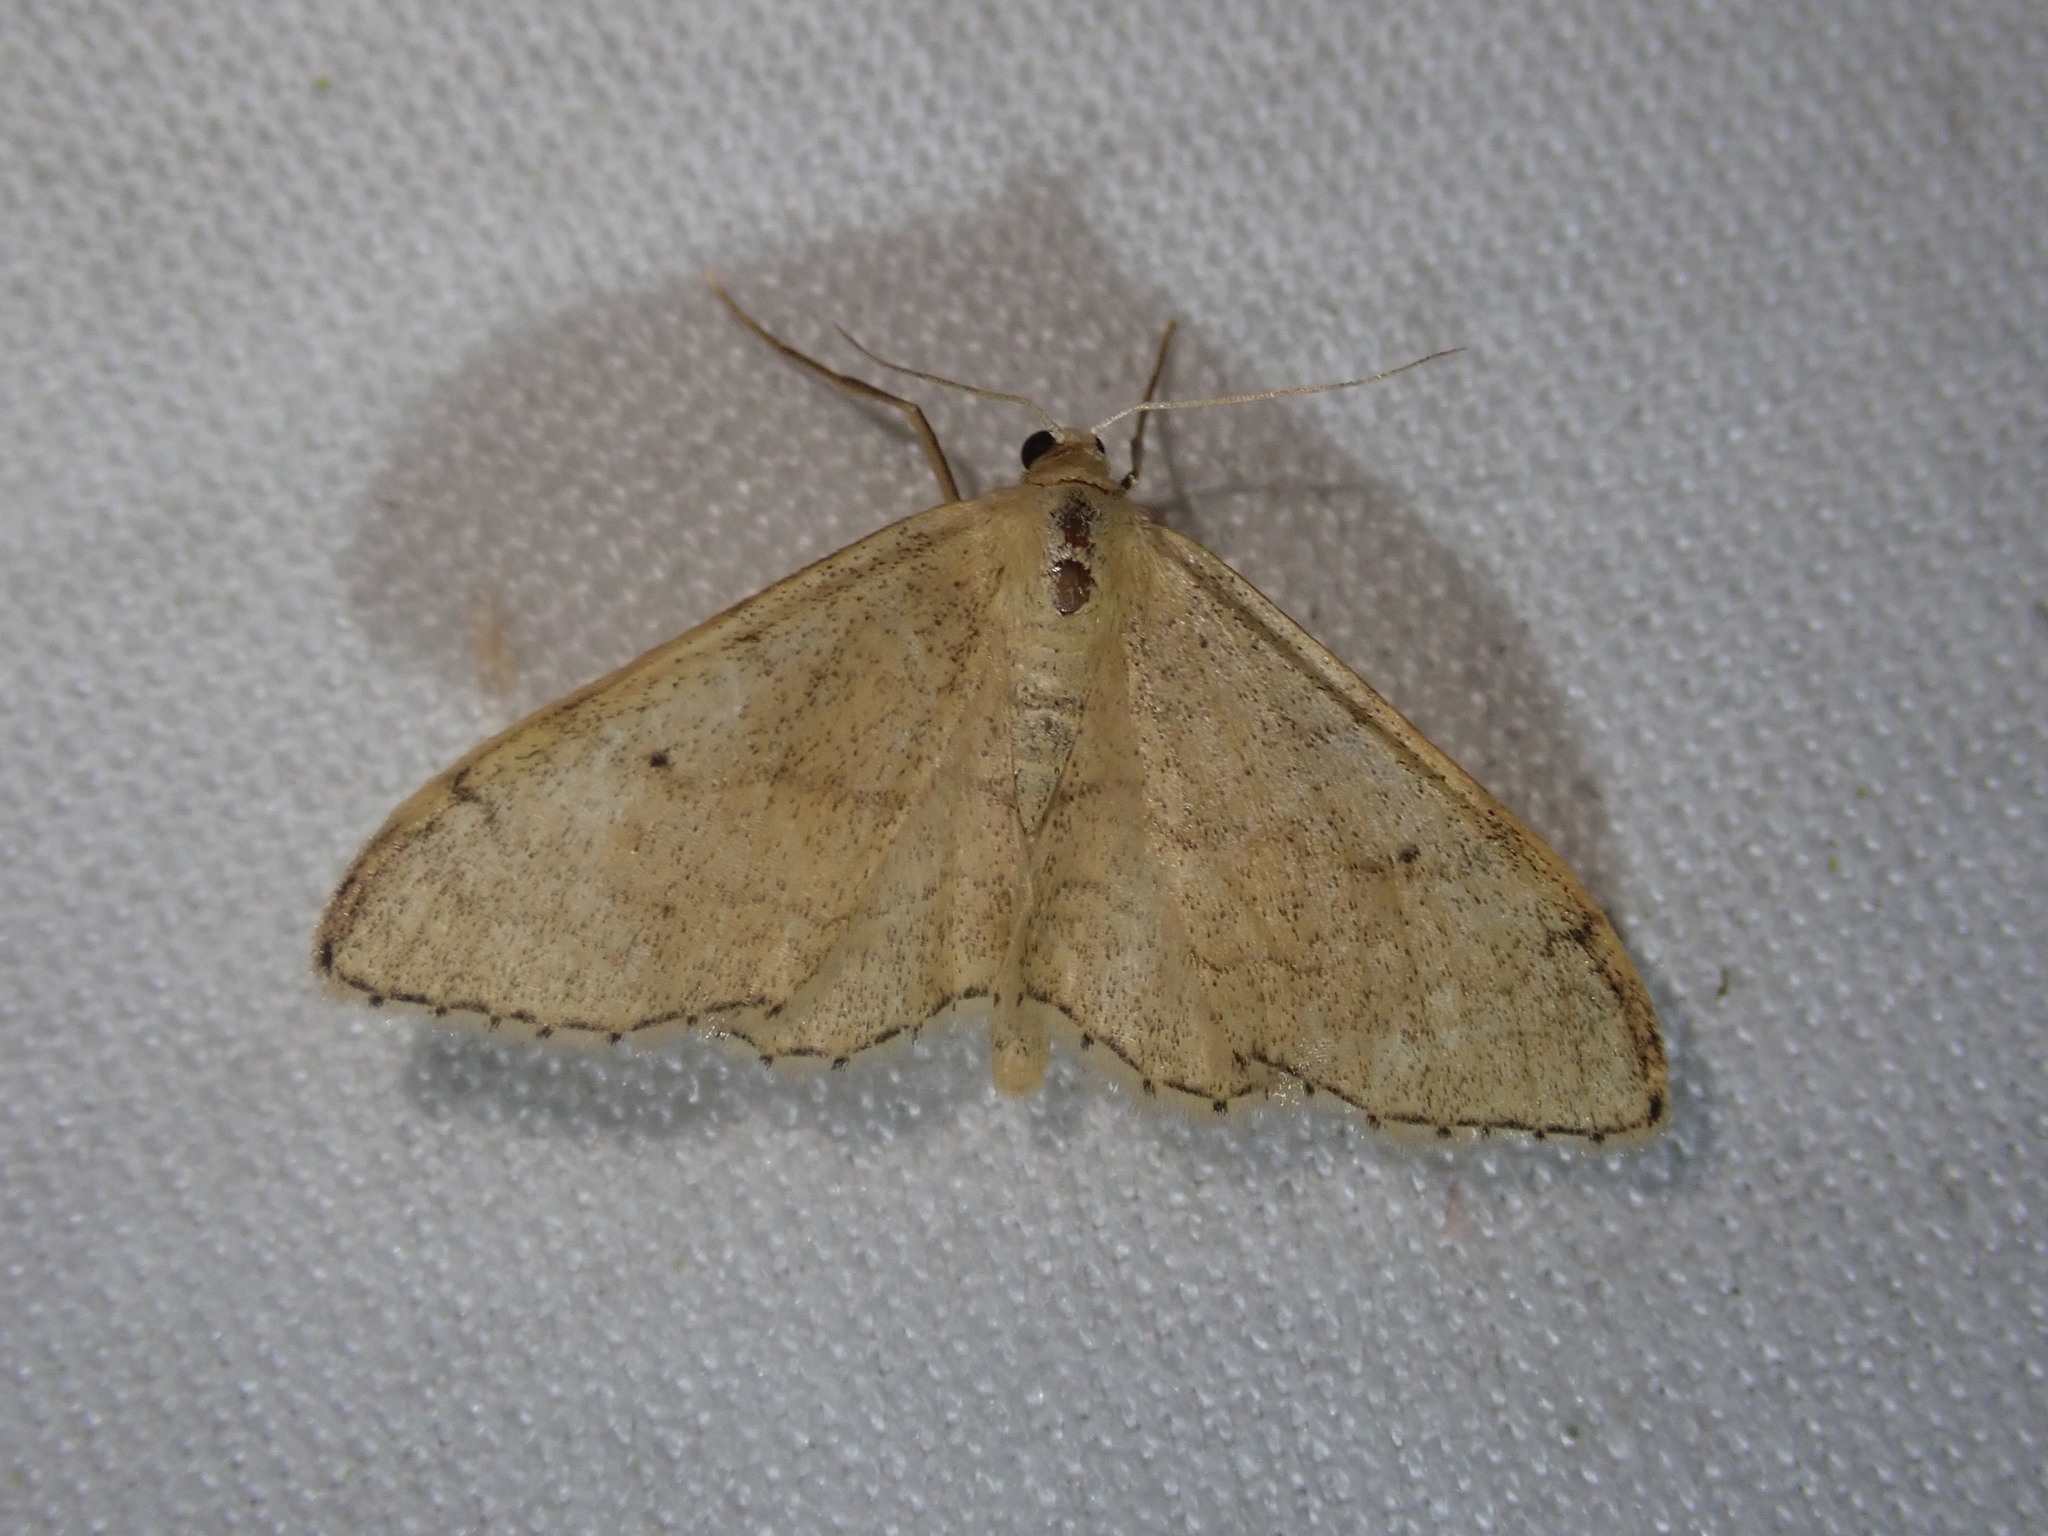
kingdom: Animalia
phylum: Arthropoda
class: Insecta
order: Lepidoptera
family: Geometridae
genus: Idaea
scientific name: Idaea aversata
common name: Riband wave
